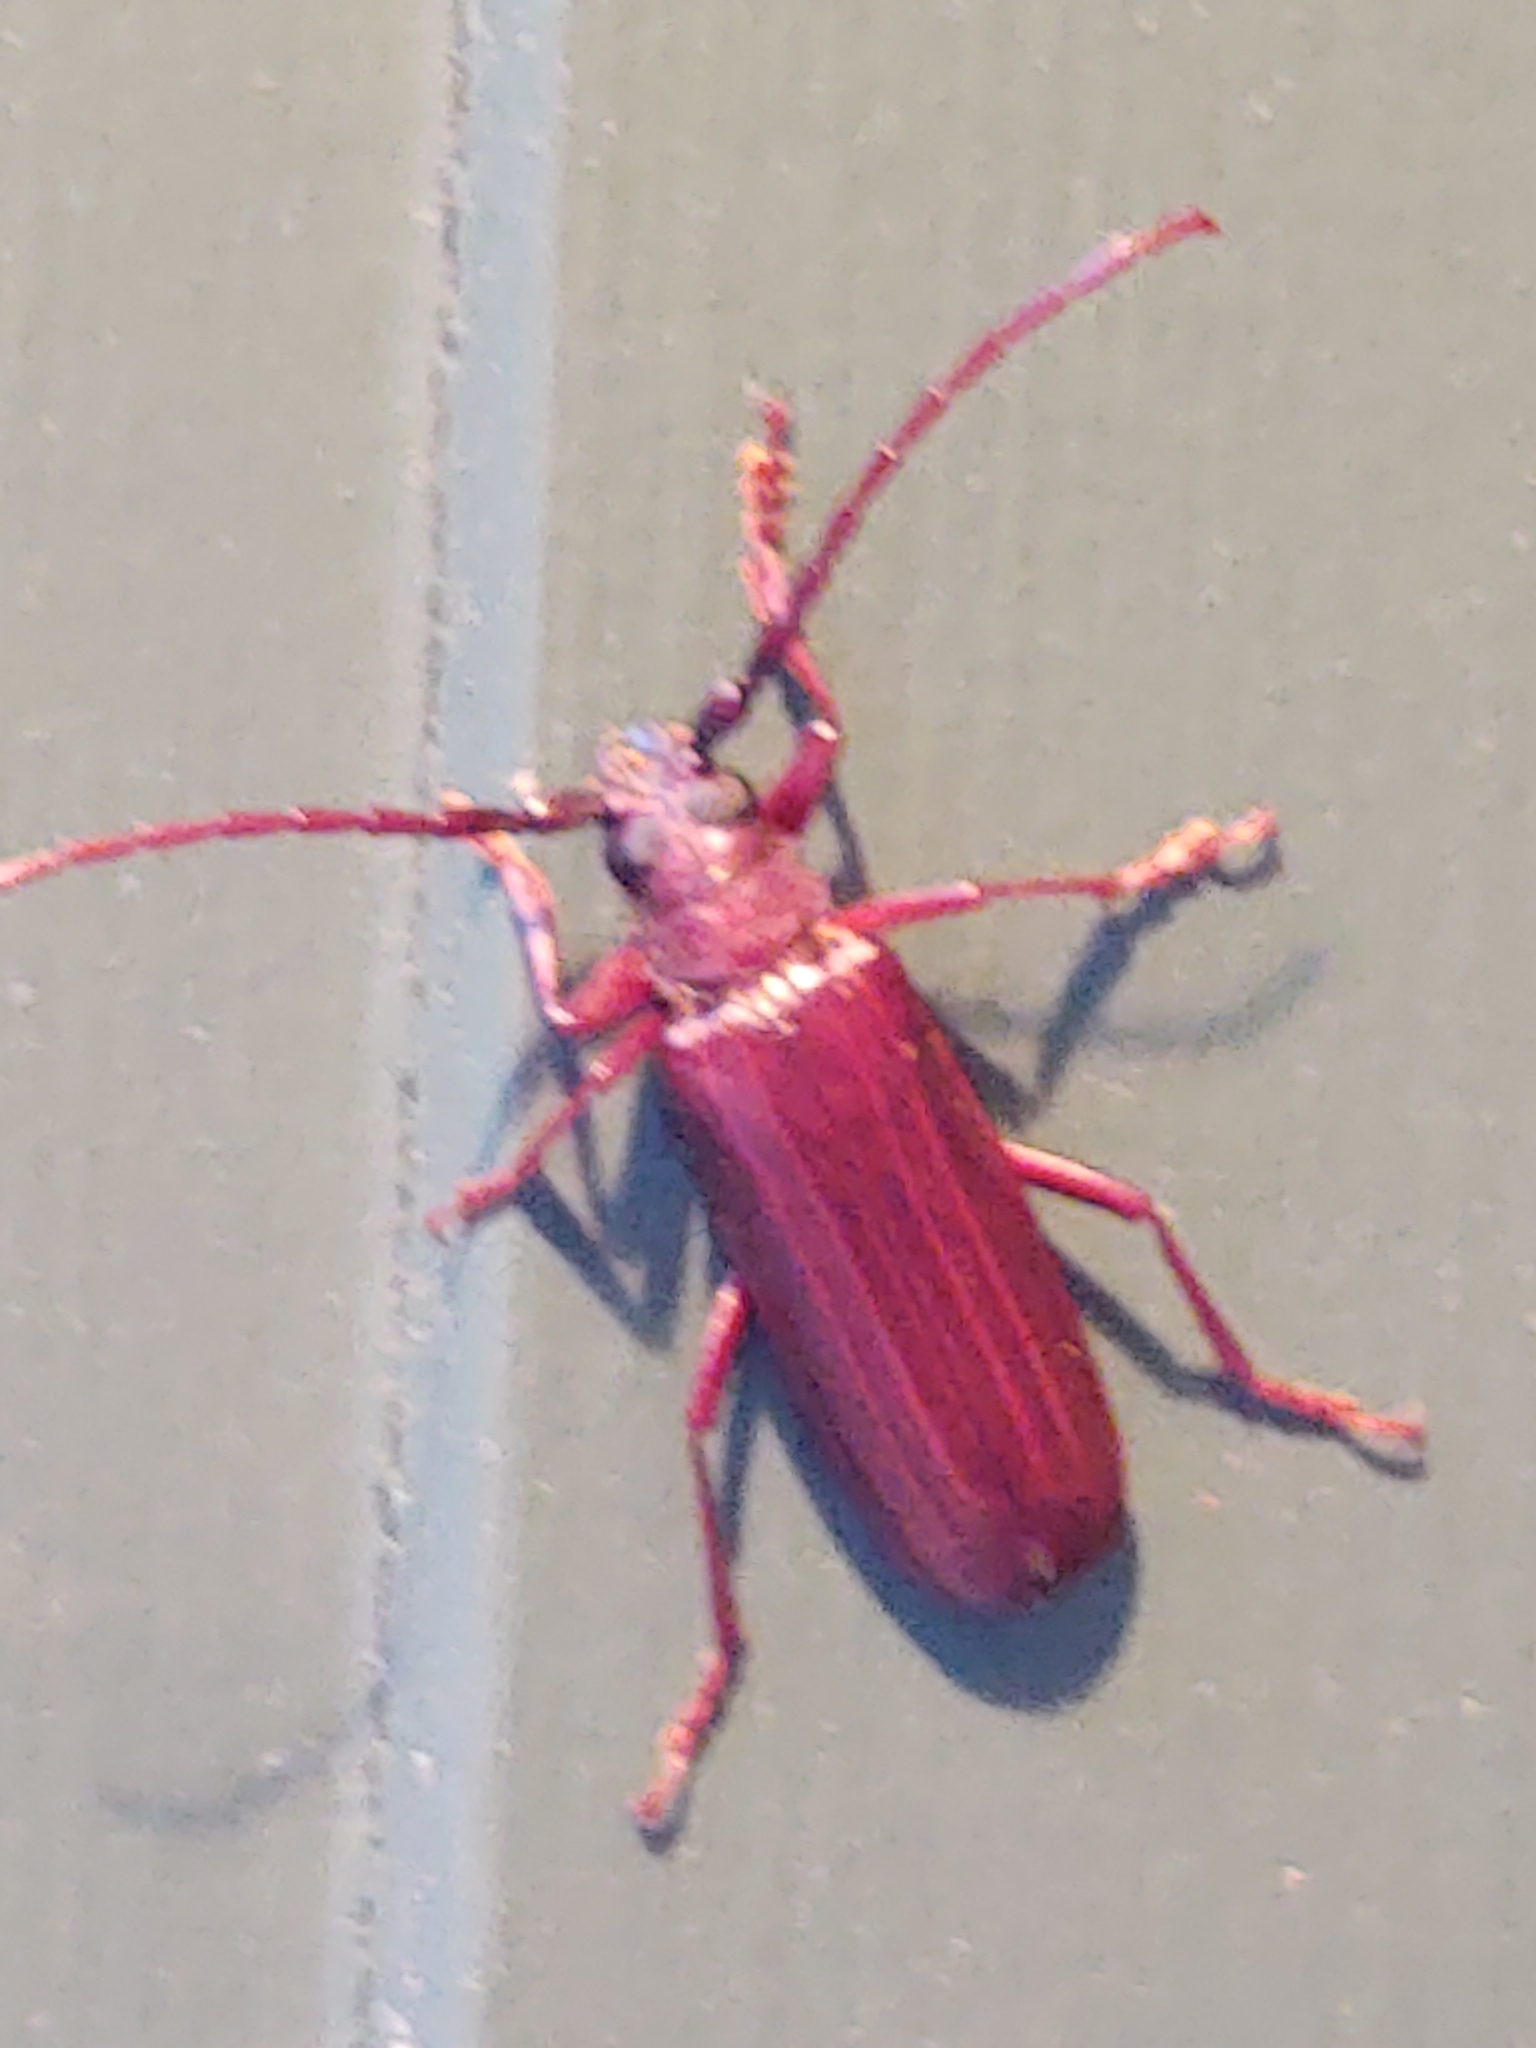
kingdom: Animalia
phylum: Arthropoda
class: Insecta
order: Coleoptera
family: Cerambycidae
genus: Orthosoma
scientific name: Orthosoma brunneum
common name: Brown prionid beetle
